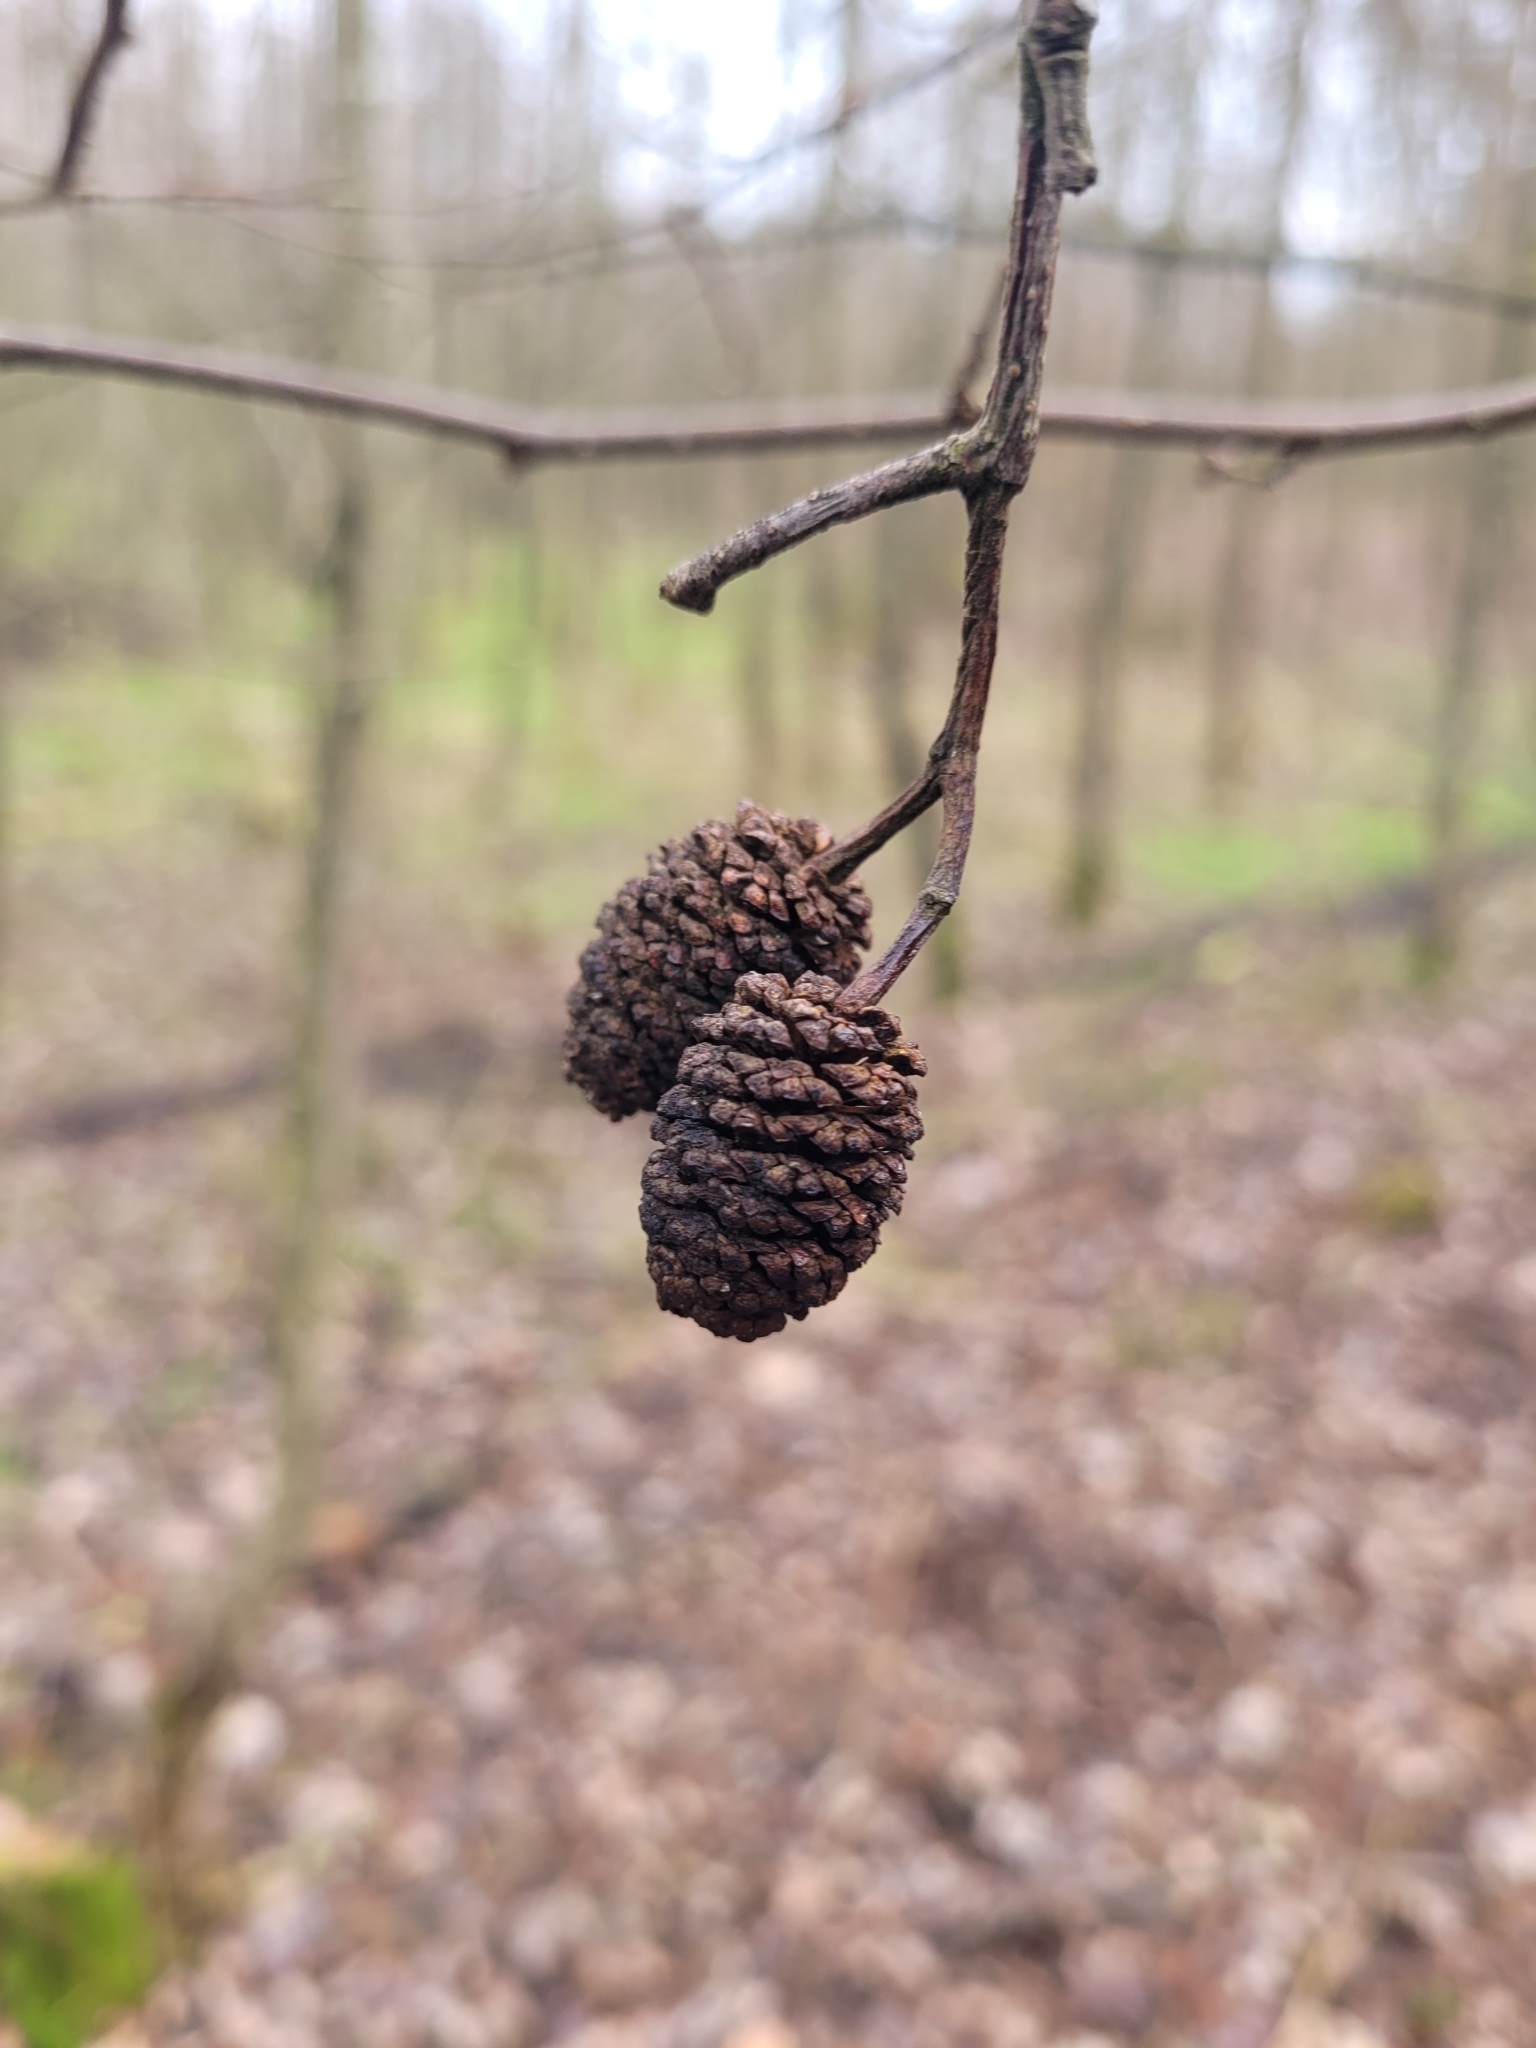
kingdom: Plantae
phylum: Tracheophyta
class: Magnoliopsida
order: Fagales
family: Betulaceae
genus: Alnus
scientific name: Alnus glutinosa
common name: Black alder
